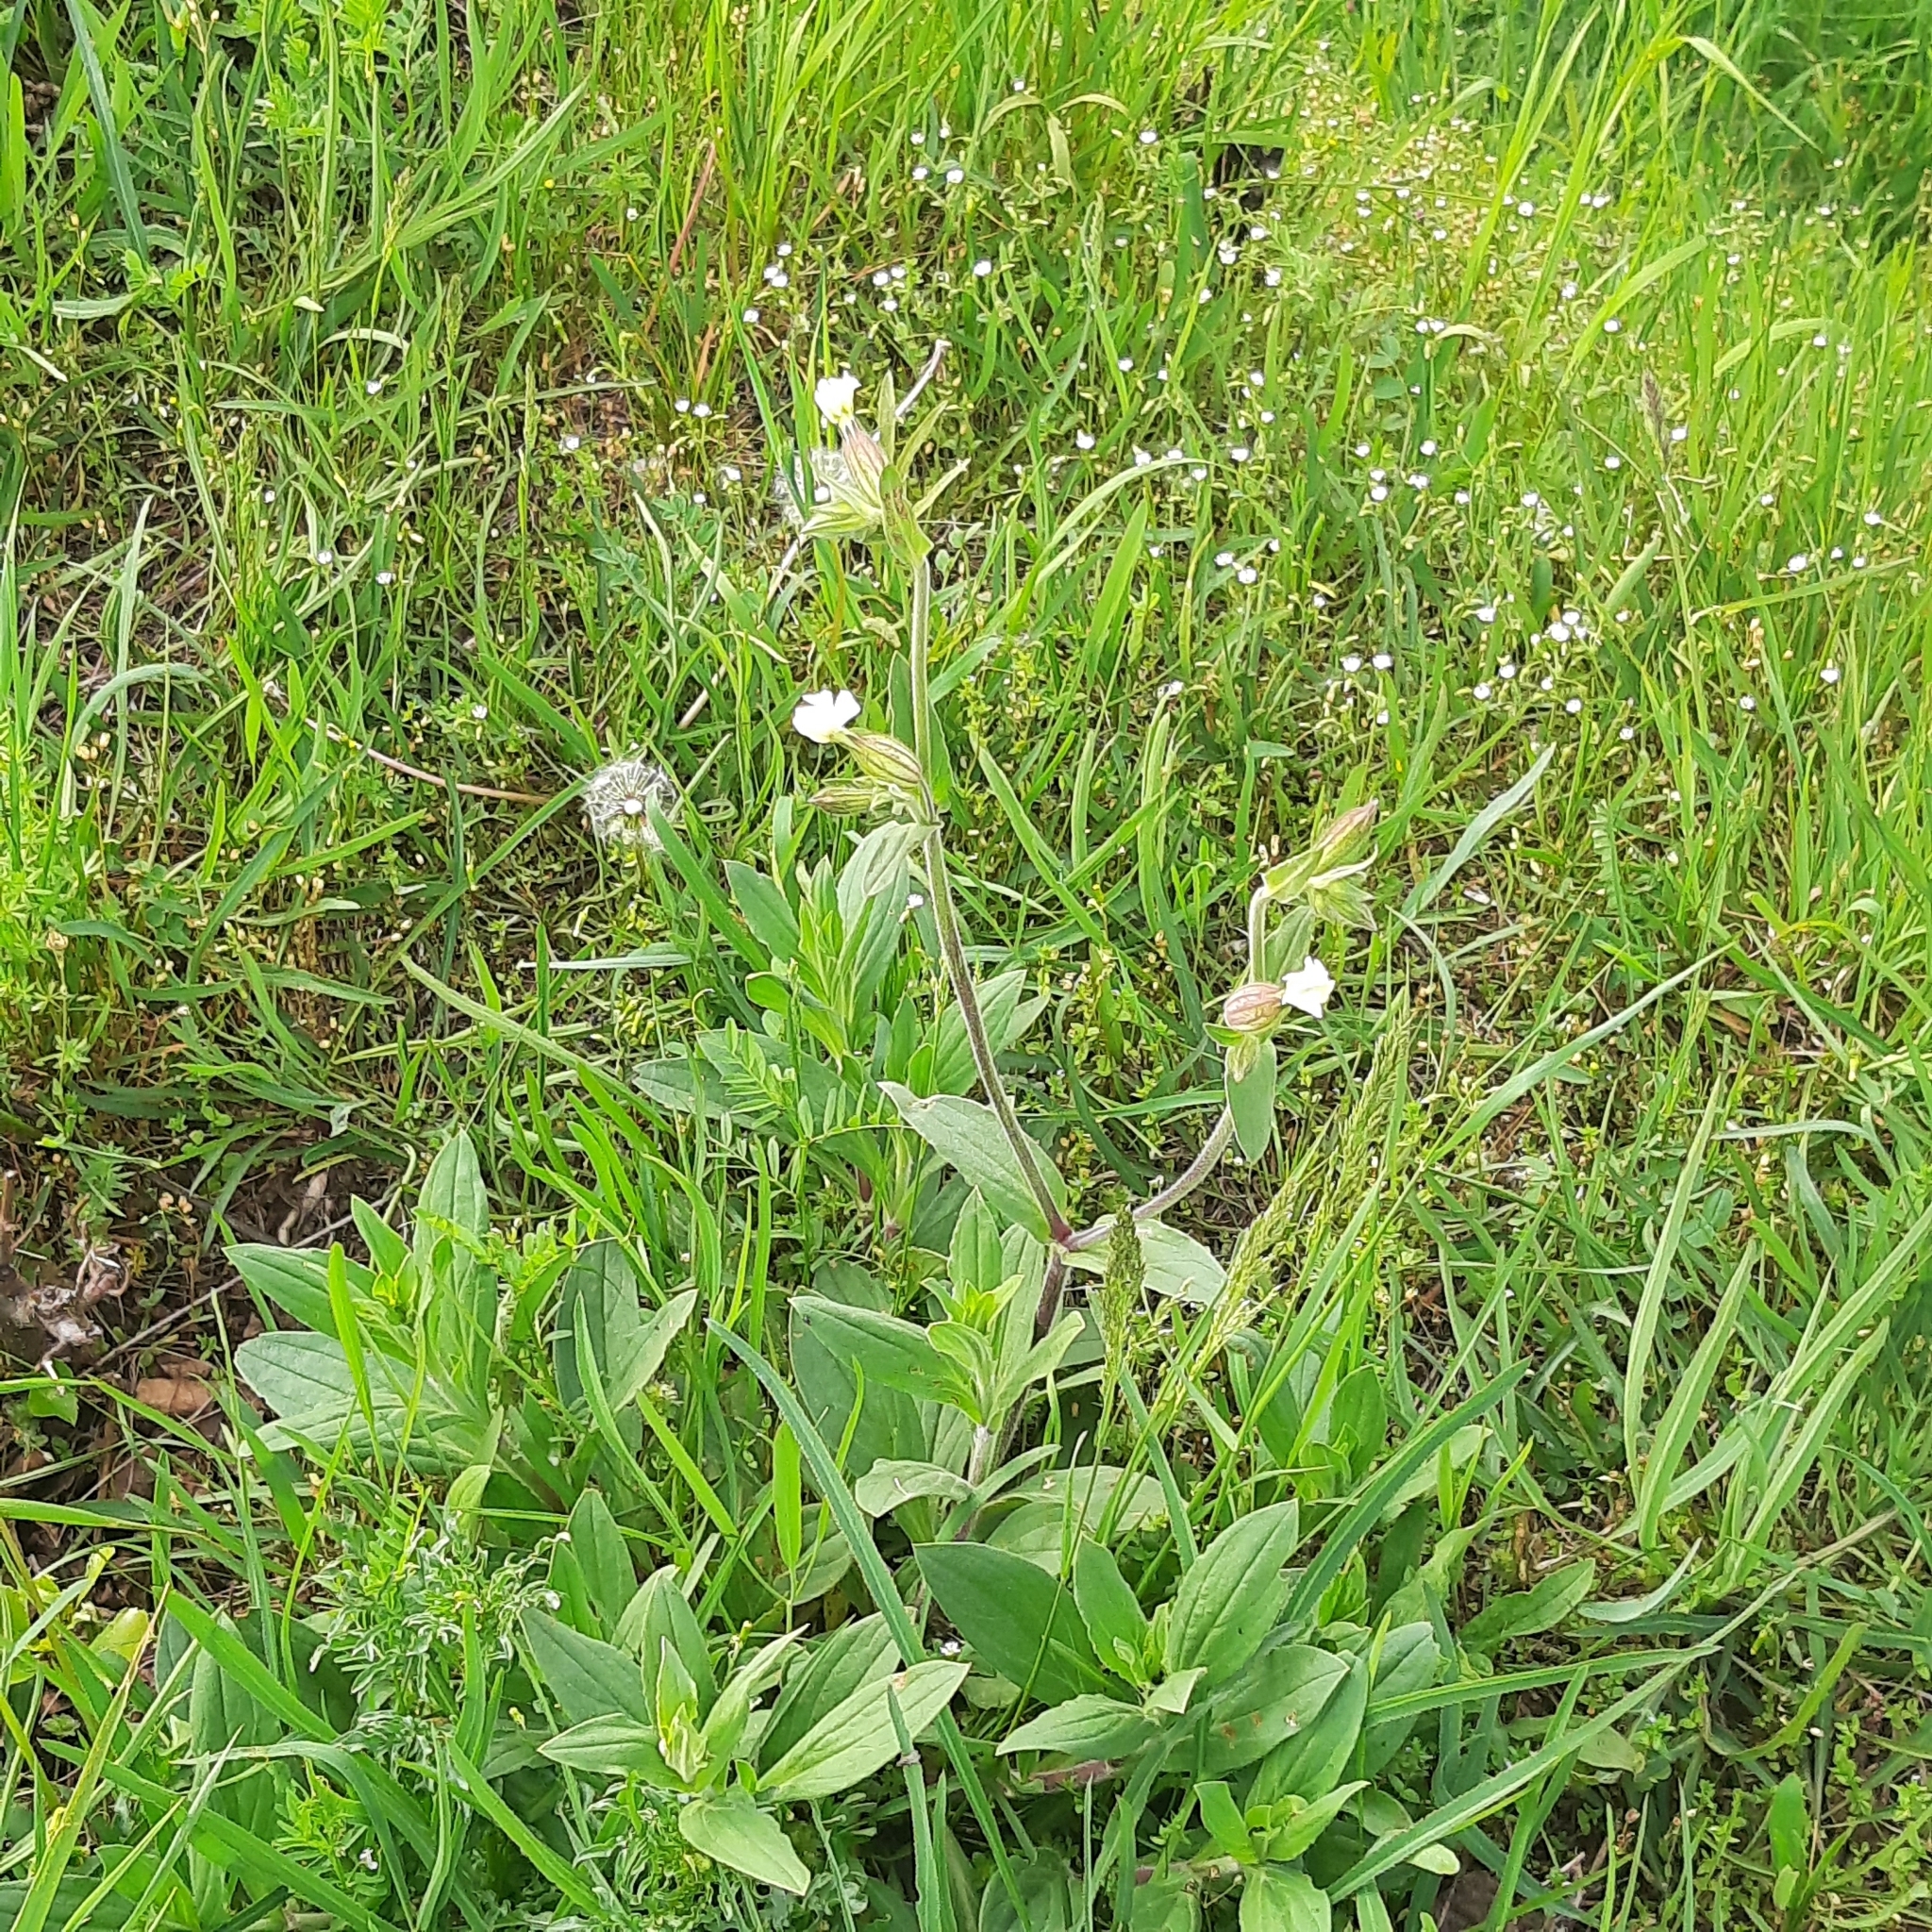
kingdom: Plantae
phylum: Tracheophyta
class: Magnoliopsida
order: Caryophyllales
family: Caryophyllaceae
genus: Silene
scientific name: Silene latifolia
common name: White campion
